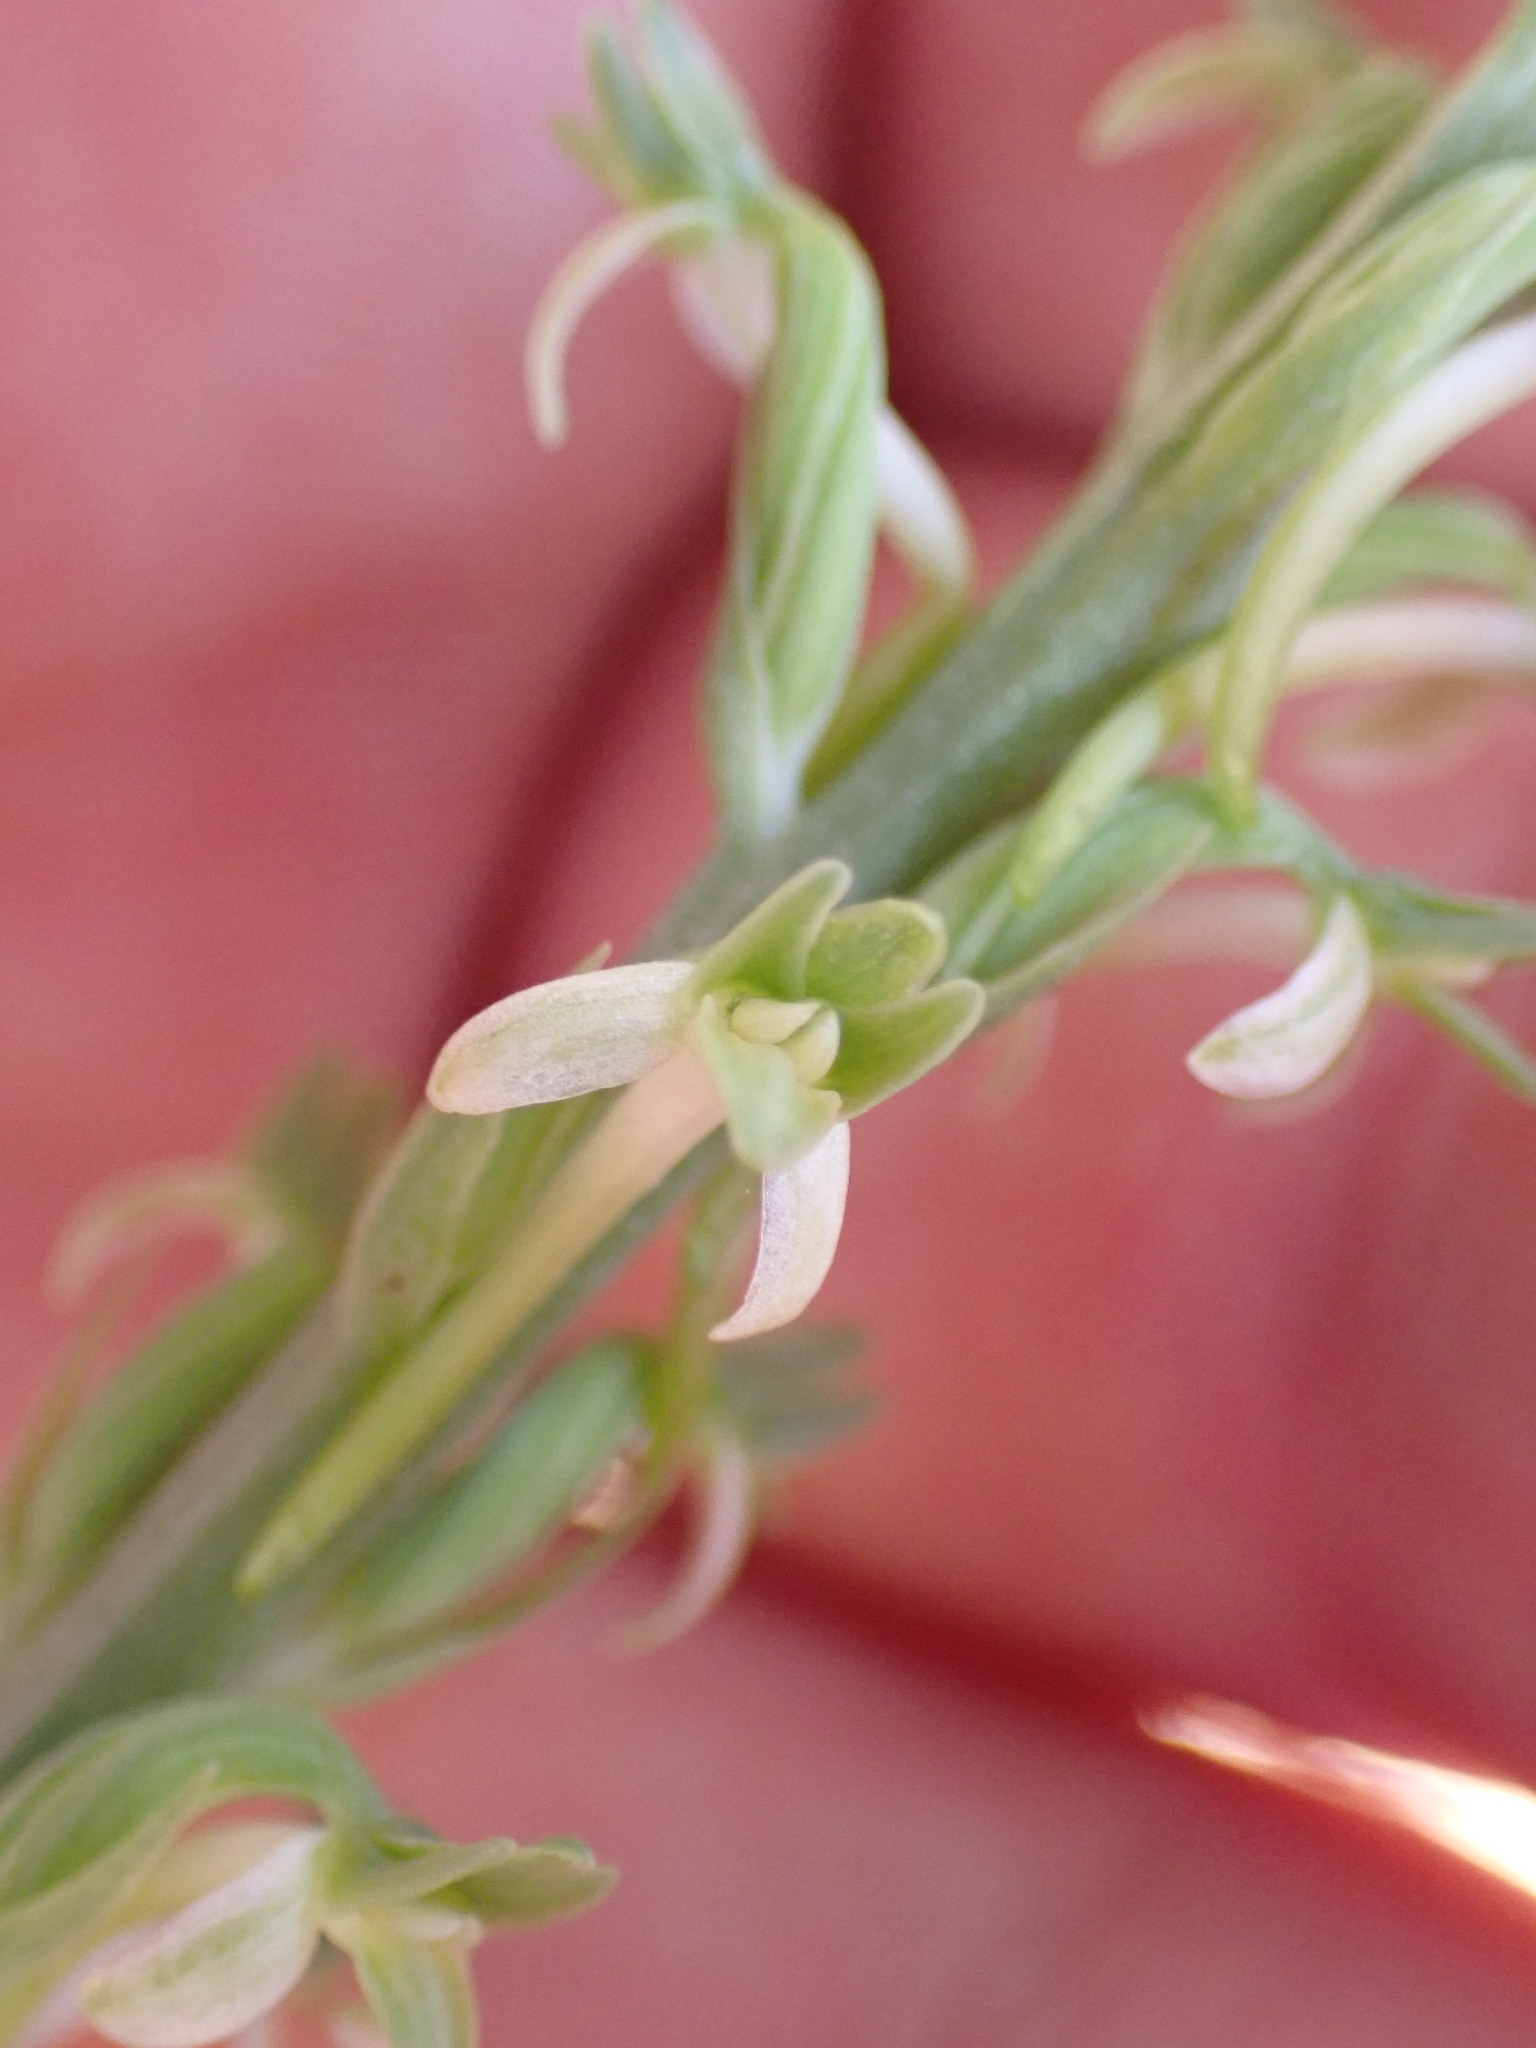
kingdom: Plantae
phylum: Tracheophyta
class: Liliopsida
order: Asparagales
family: Orchidaceae
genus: Platanthera
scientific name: Platanthera elongata
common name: Dense-flowered rein orchid
